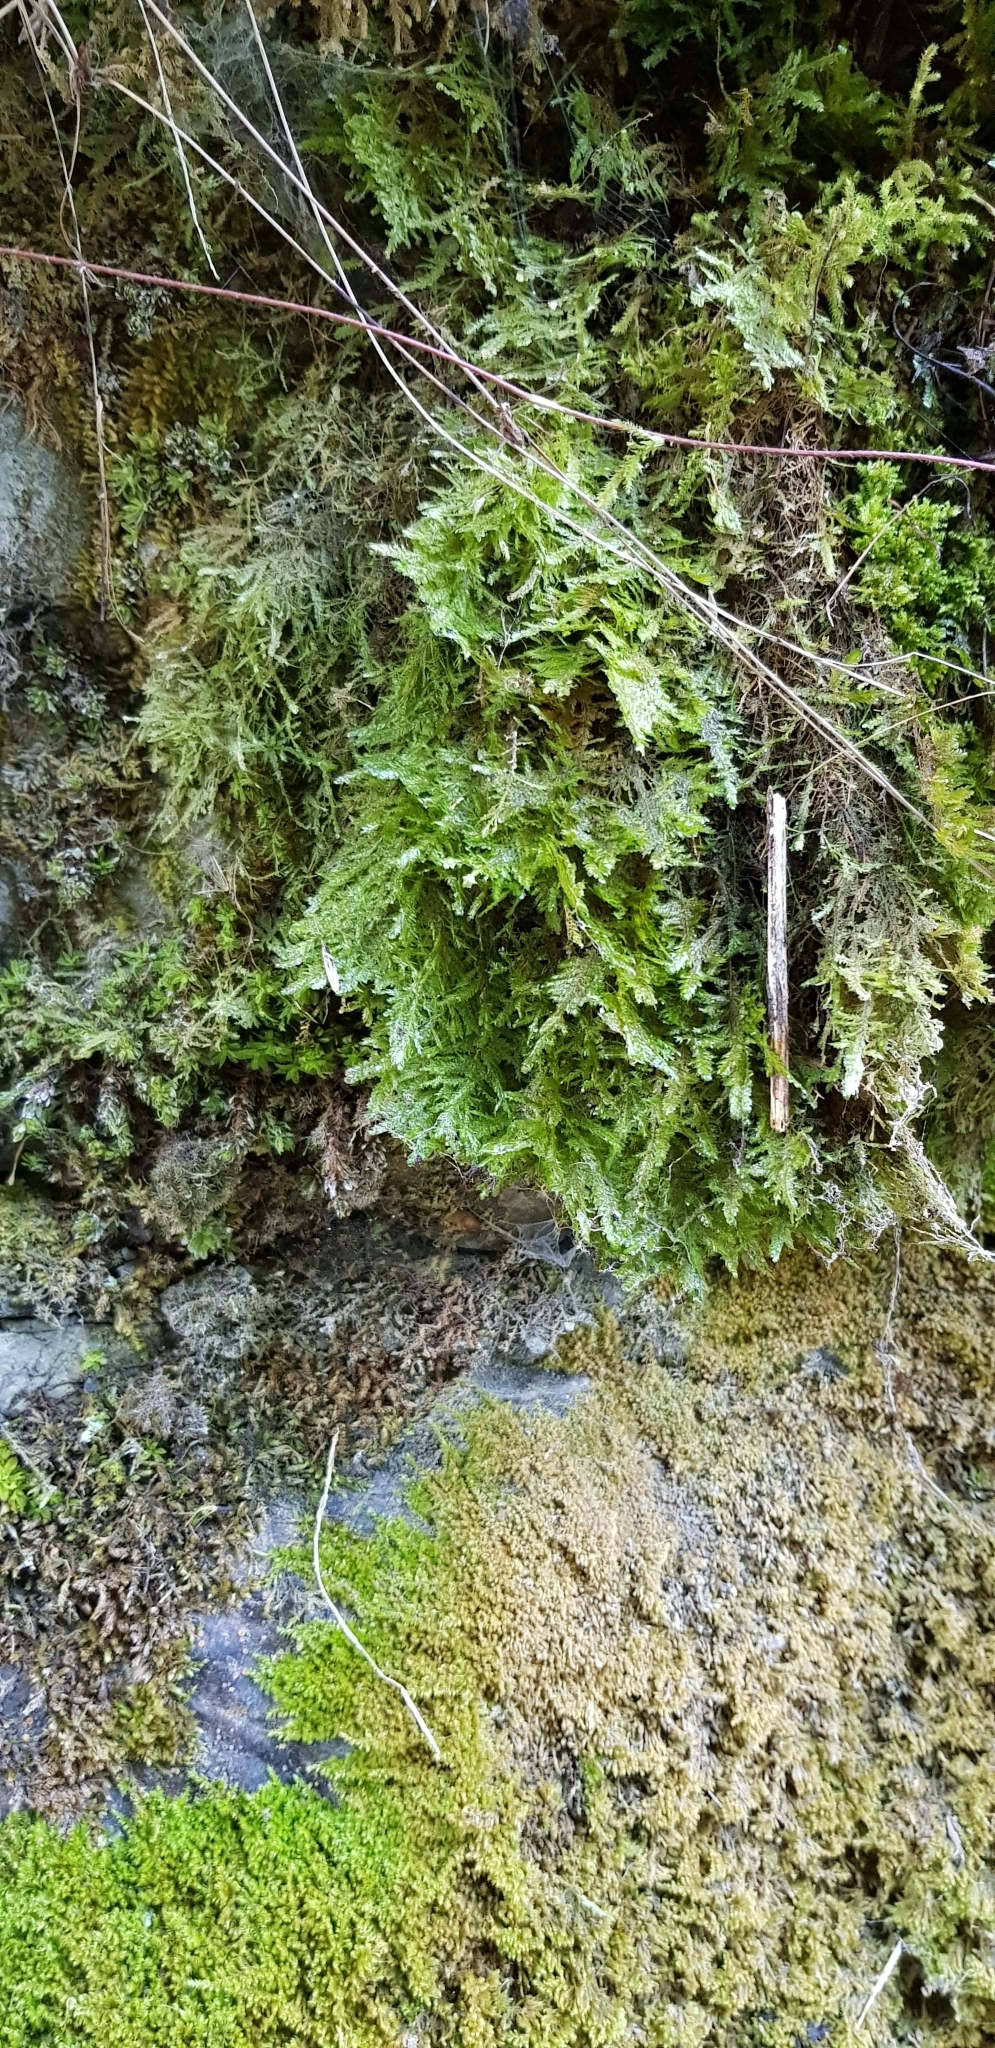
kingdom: Plantae
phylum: Bryophyta
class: Bryopsida
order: Hypnales
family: Neckeraceae
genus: Alleniella
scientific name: Alleniella complanata
